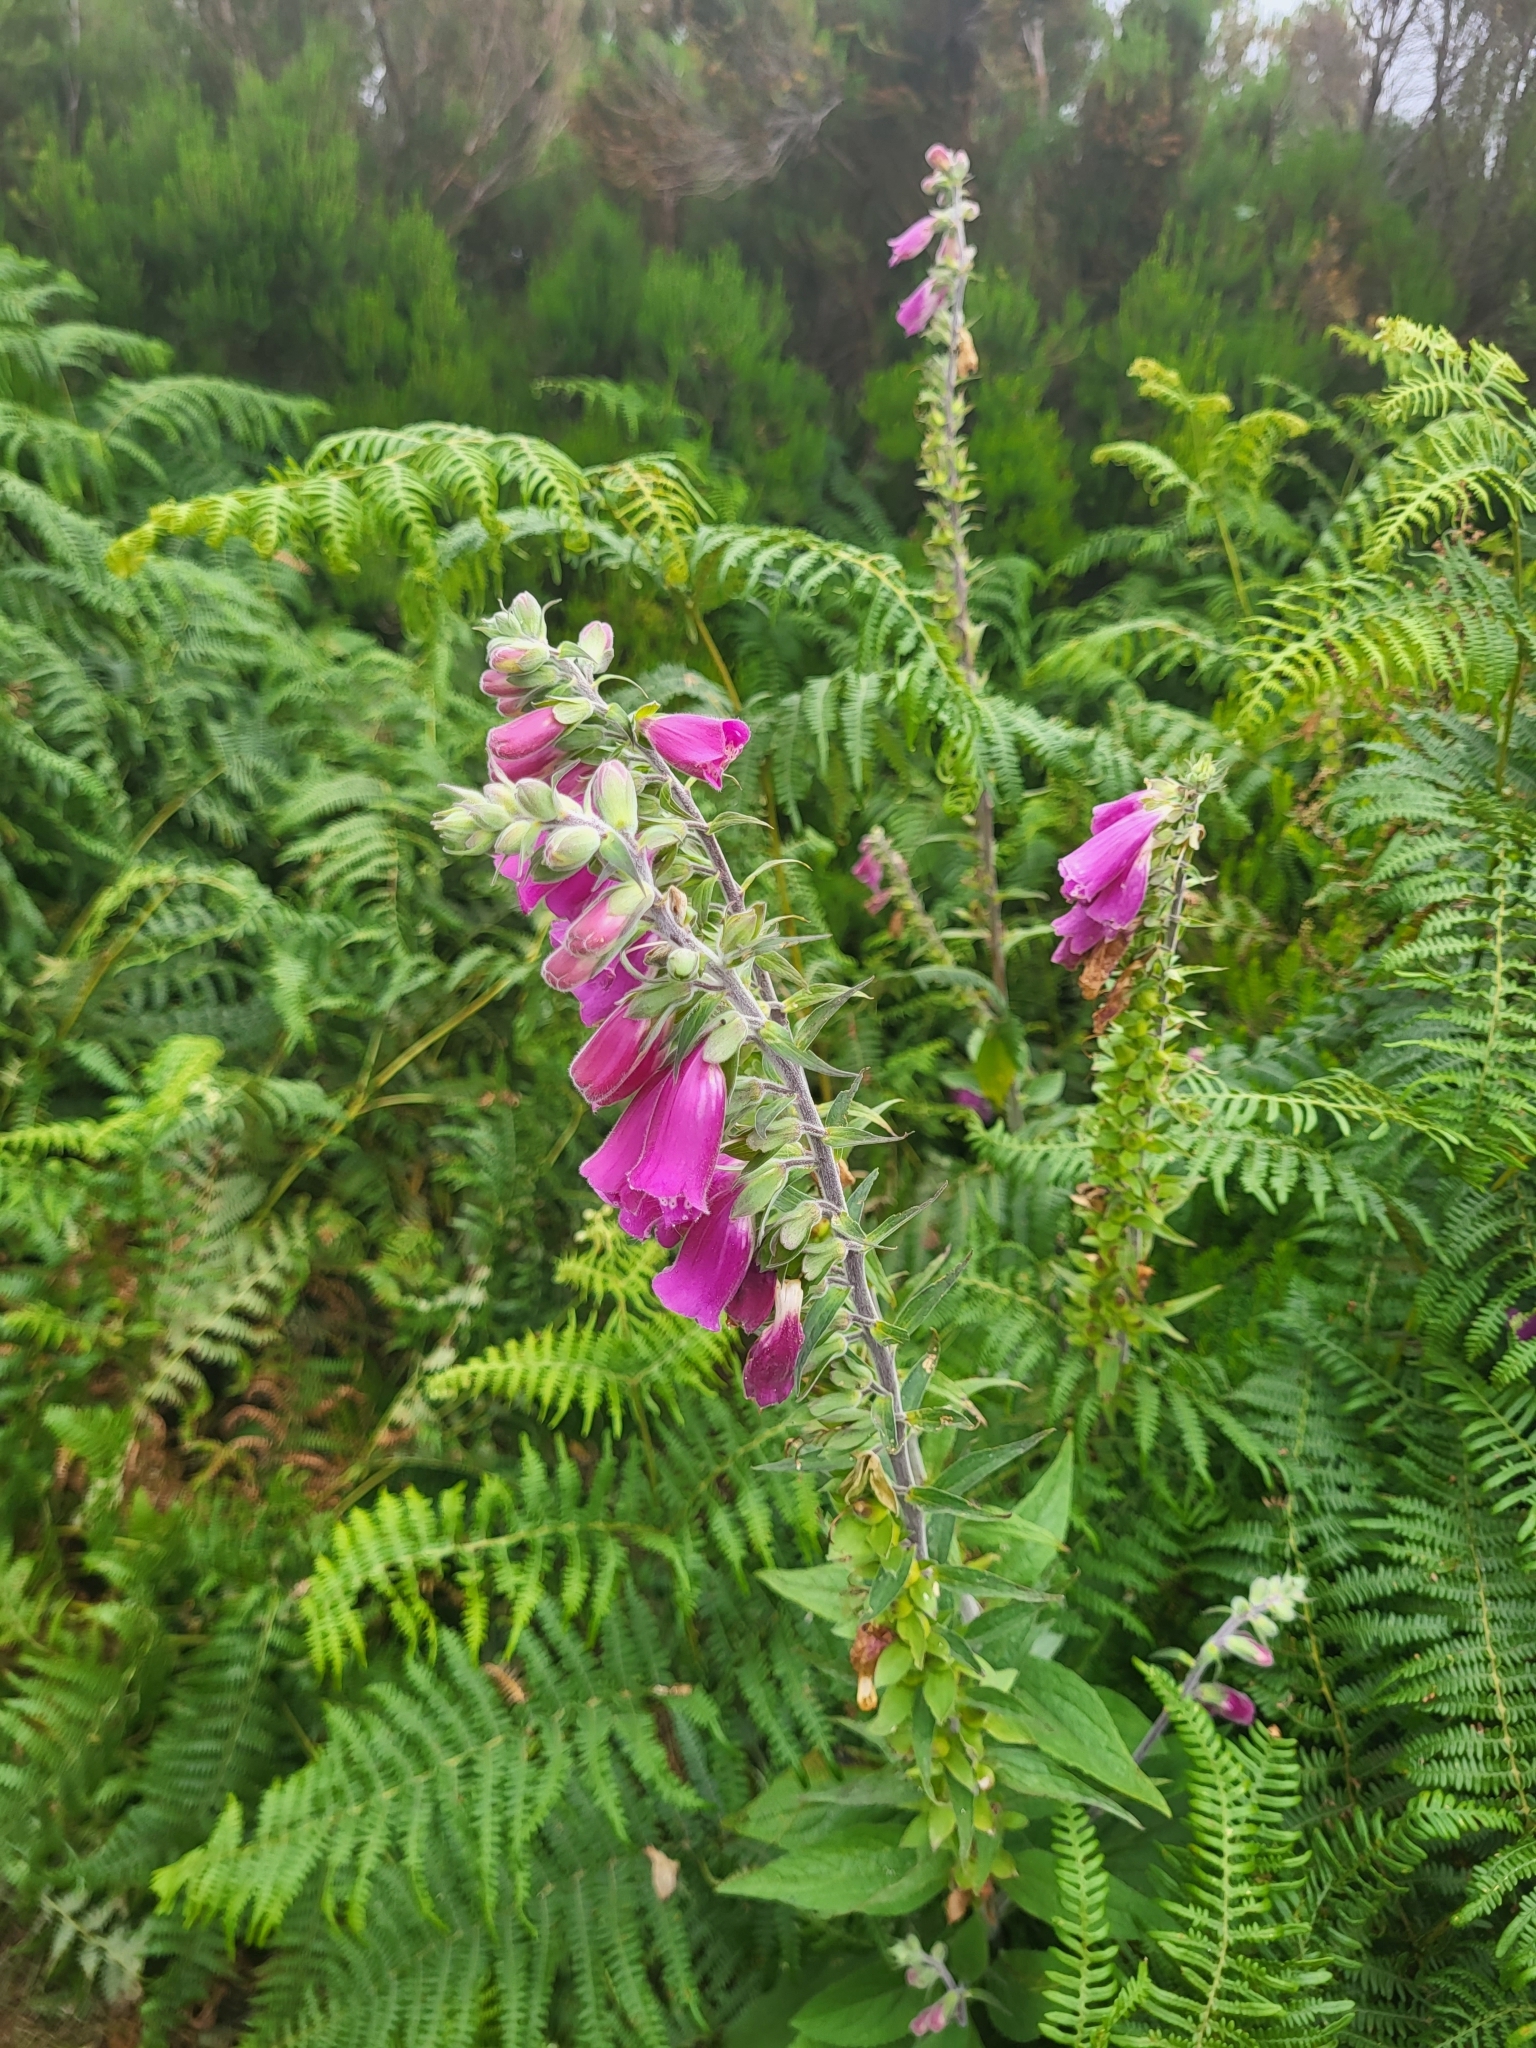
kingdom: Plantae
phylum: Tracheophyta
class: Magnoliopsida
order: Lamiales
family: Plantaginaceae
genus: Digitalis
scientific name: Digitalis purpurea
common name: Foxglove
